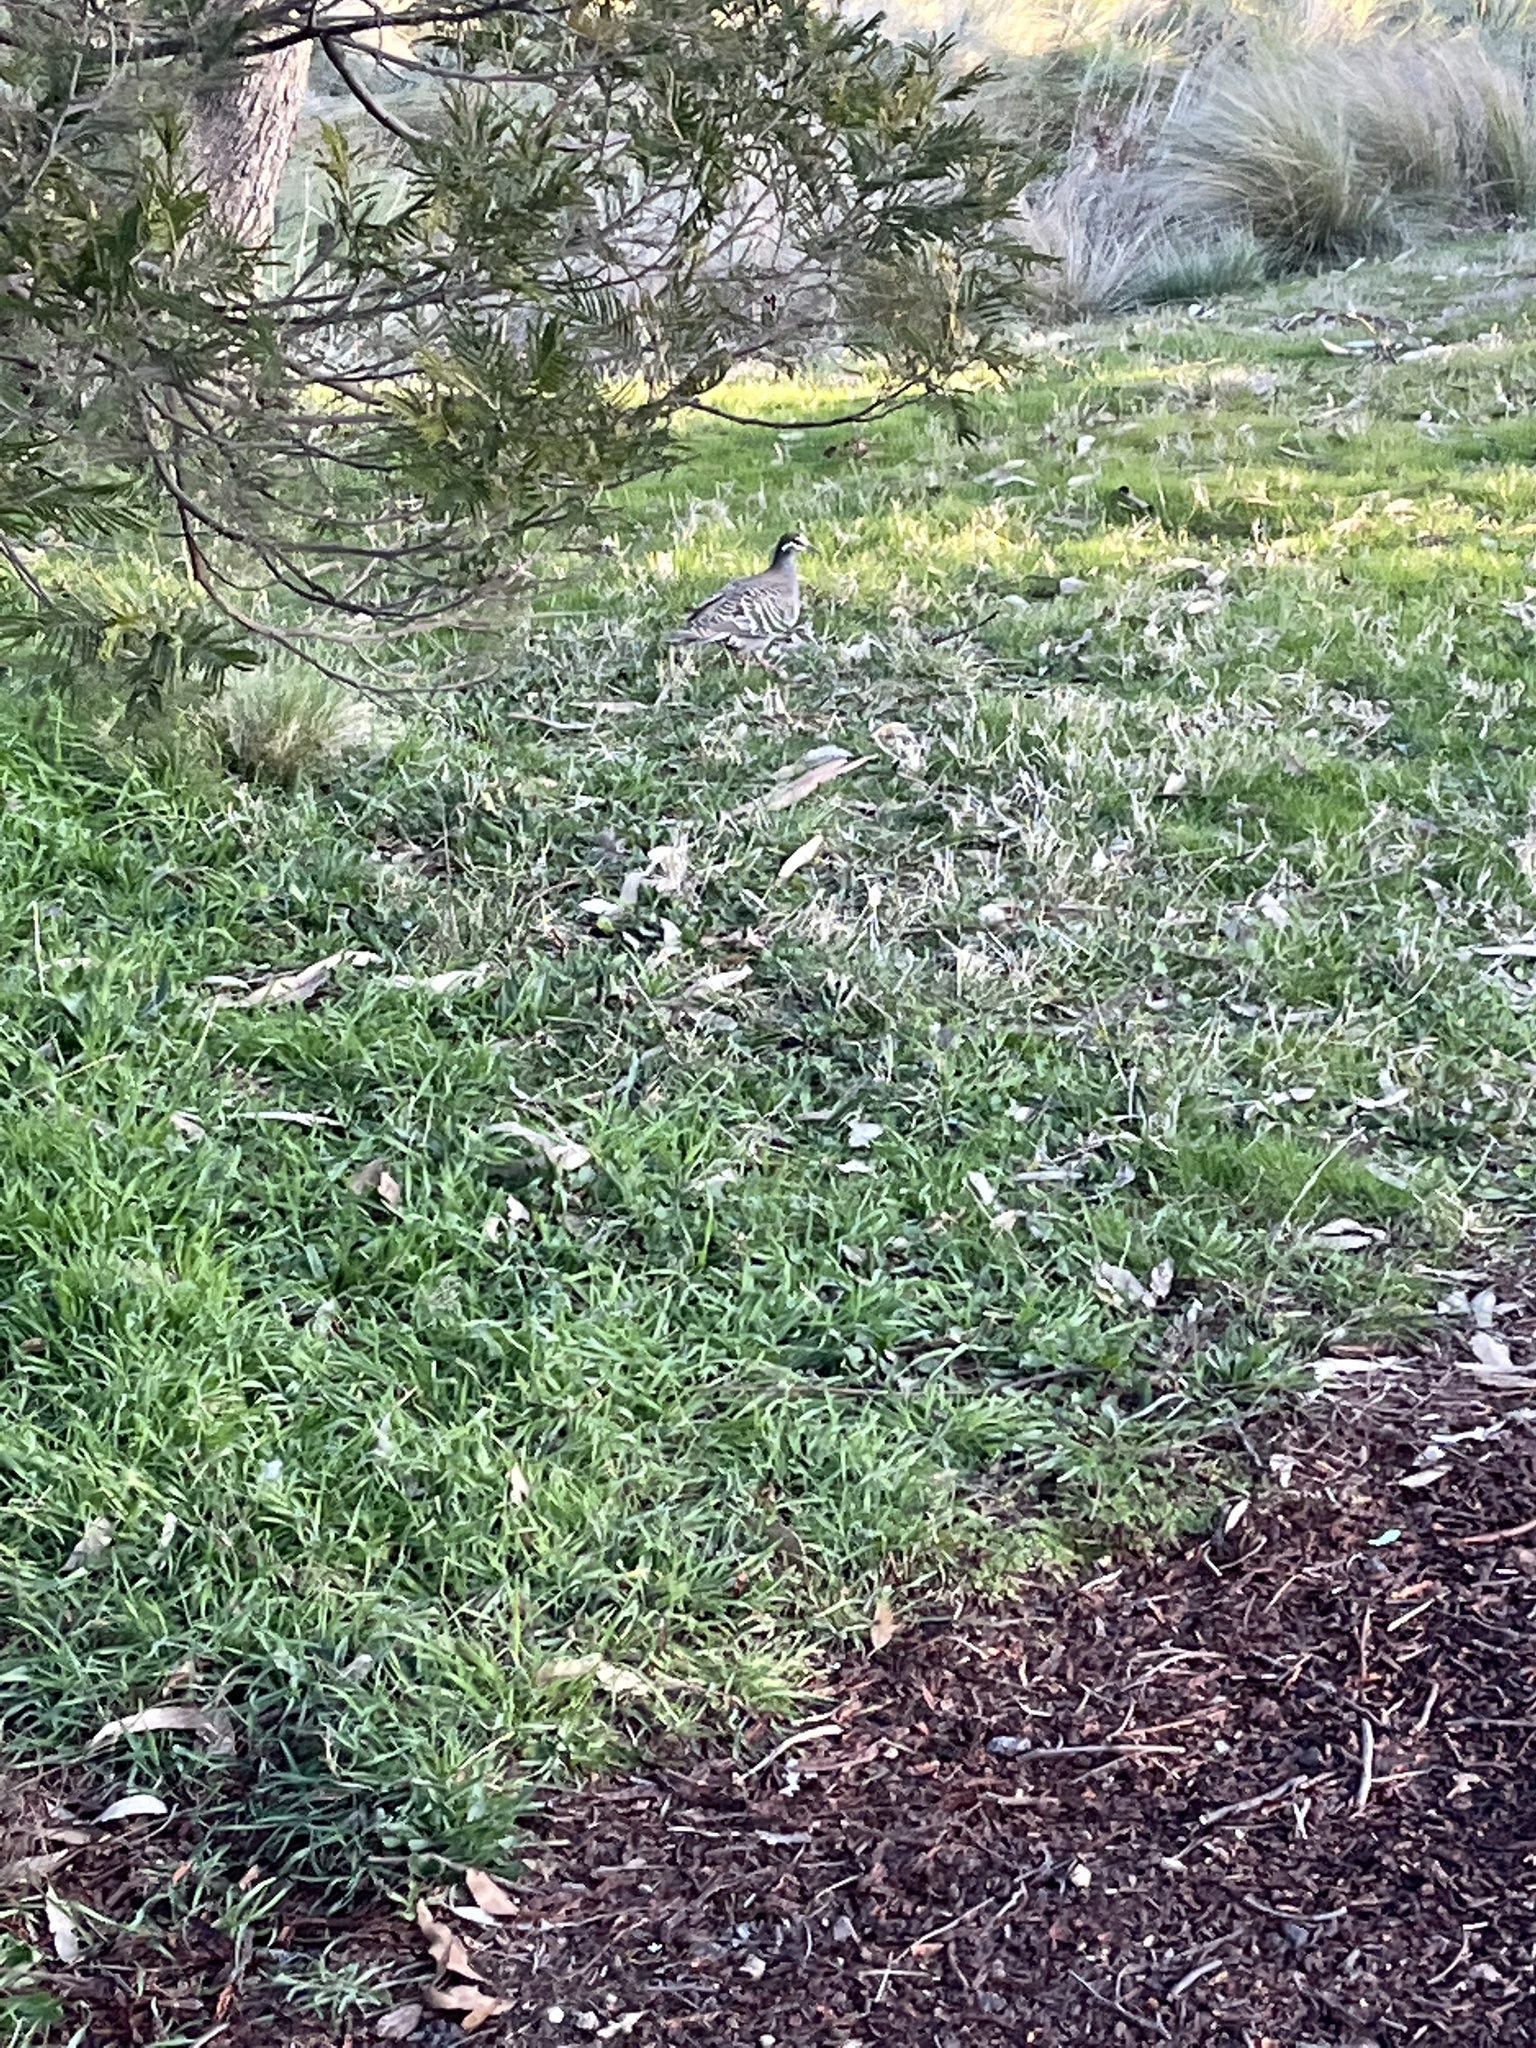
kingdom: Animalia
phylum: Chordata
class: Aves
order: Columbiformes
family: Columbidae
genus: Phaps
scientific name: Phaps chalcoptera
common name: Common bronzewing
